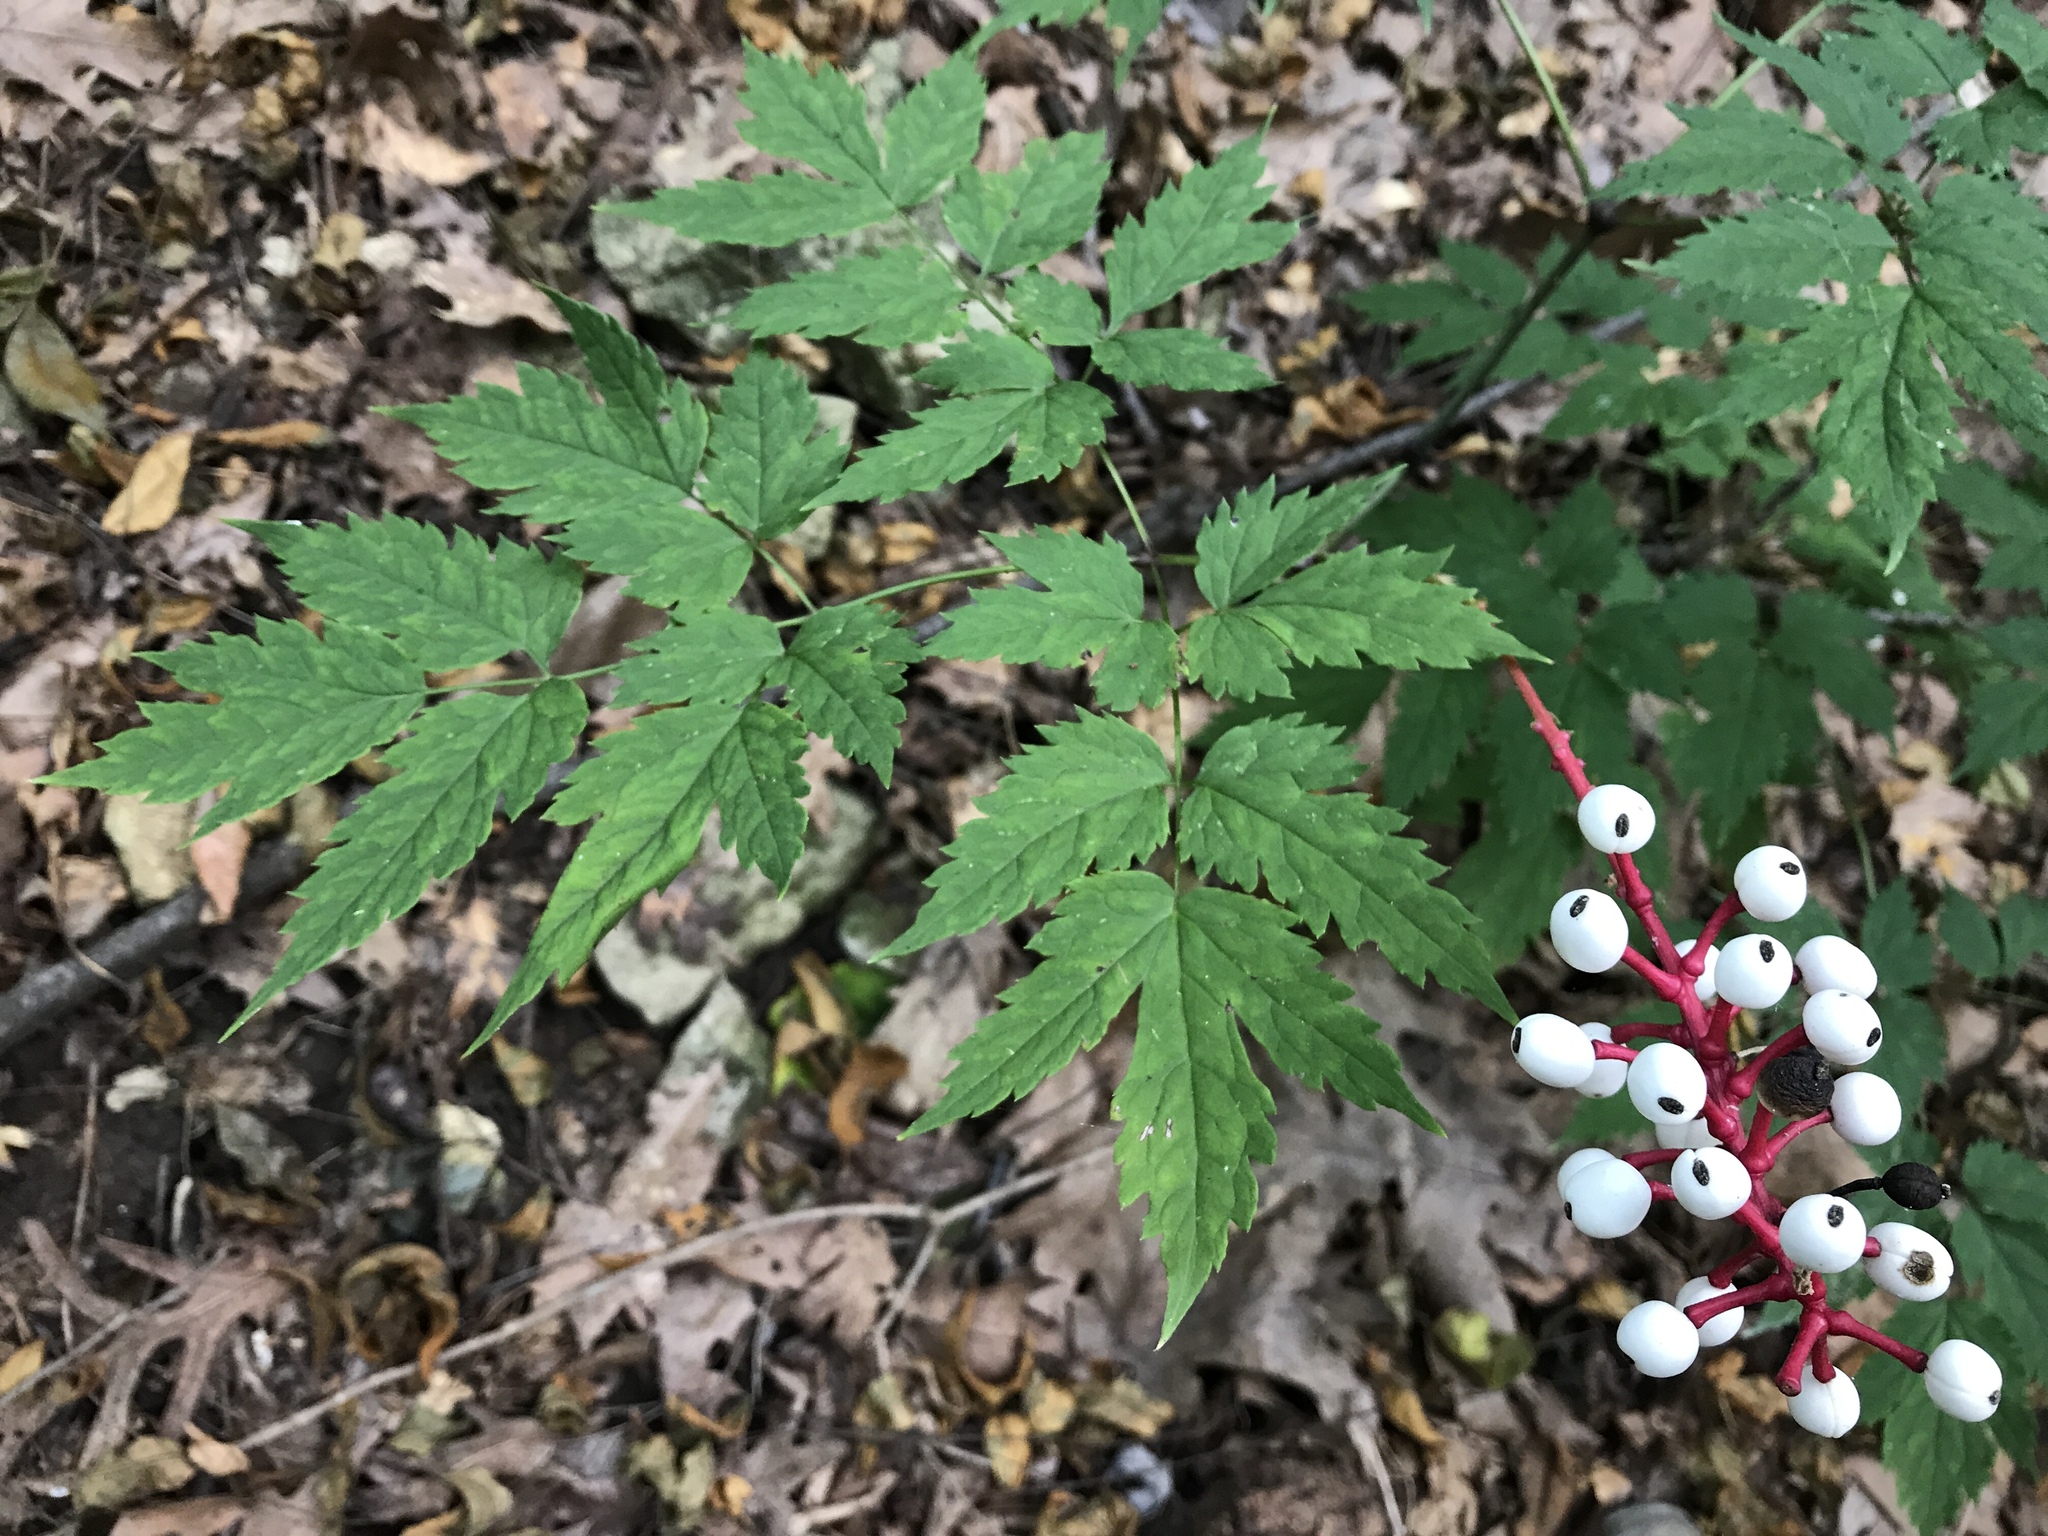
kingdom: Plantae
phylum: Tracheophyta
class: Magnoliopsida
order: Ranunculales
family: Ranunculaceae
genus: Actaea
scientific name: Actaea pachypoda
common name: Doll's-eyes
